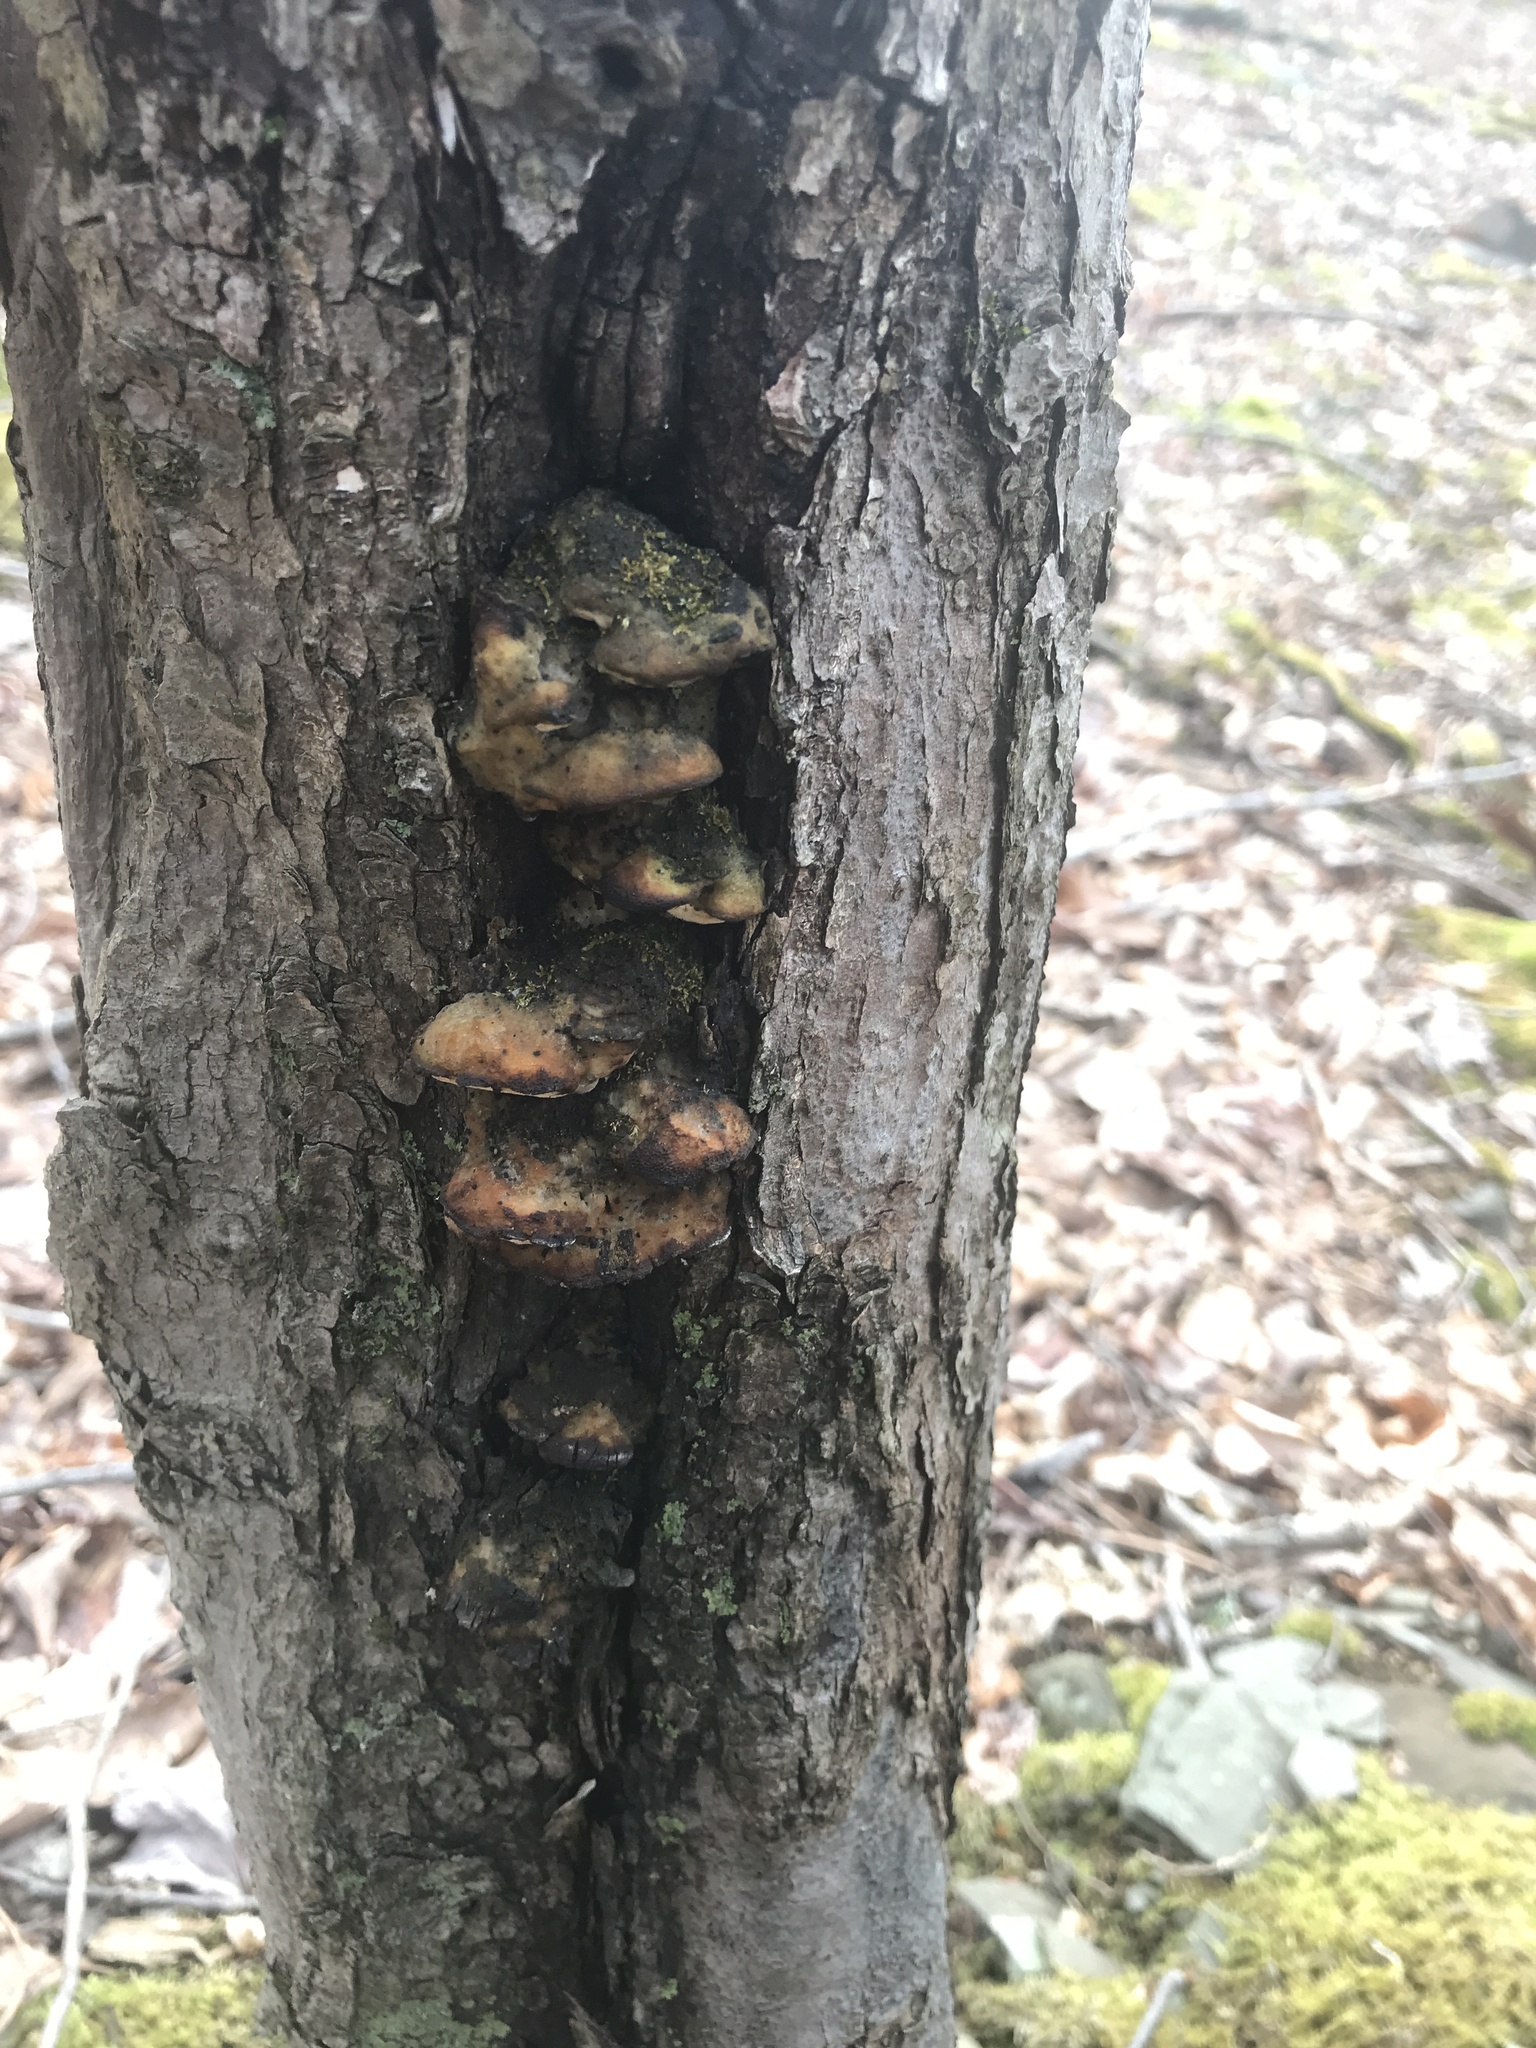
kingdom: Fungi
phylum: Basidiomycota
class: Agaricomycetes
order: Hymenochaetales
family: Oxyporaceae
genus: Oxyporus
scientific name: Oxyporus populinus
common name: Poplar bracket
